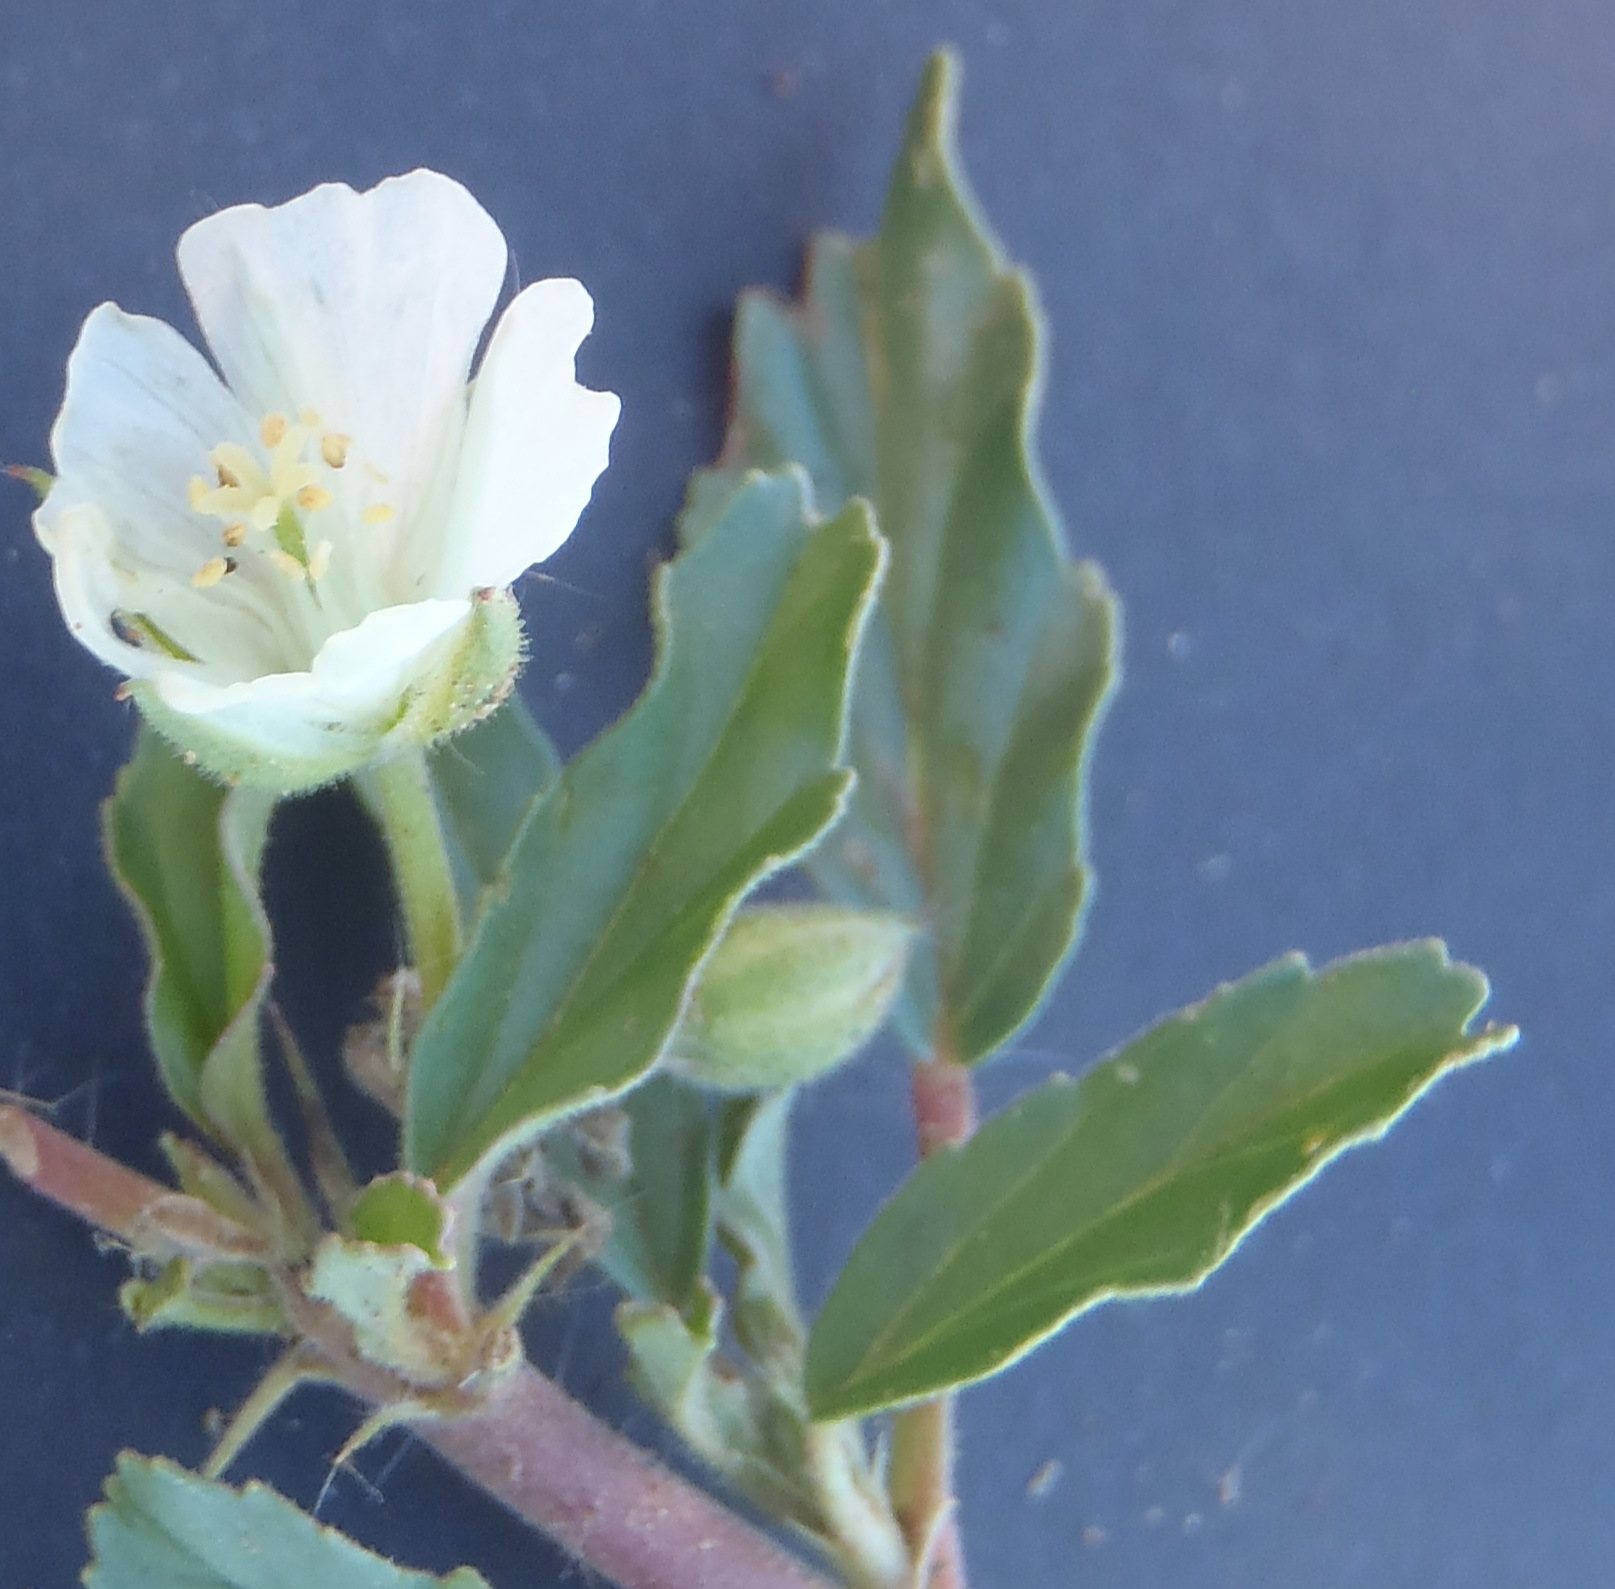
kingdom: Plantae
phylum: Tracheophyta
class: Magnoliopsida
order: Geraniales
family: Geraniaceae
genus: Monsonia
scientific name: Monsonia angustifolia
